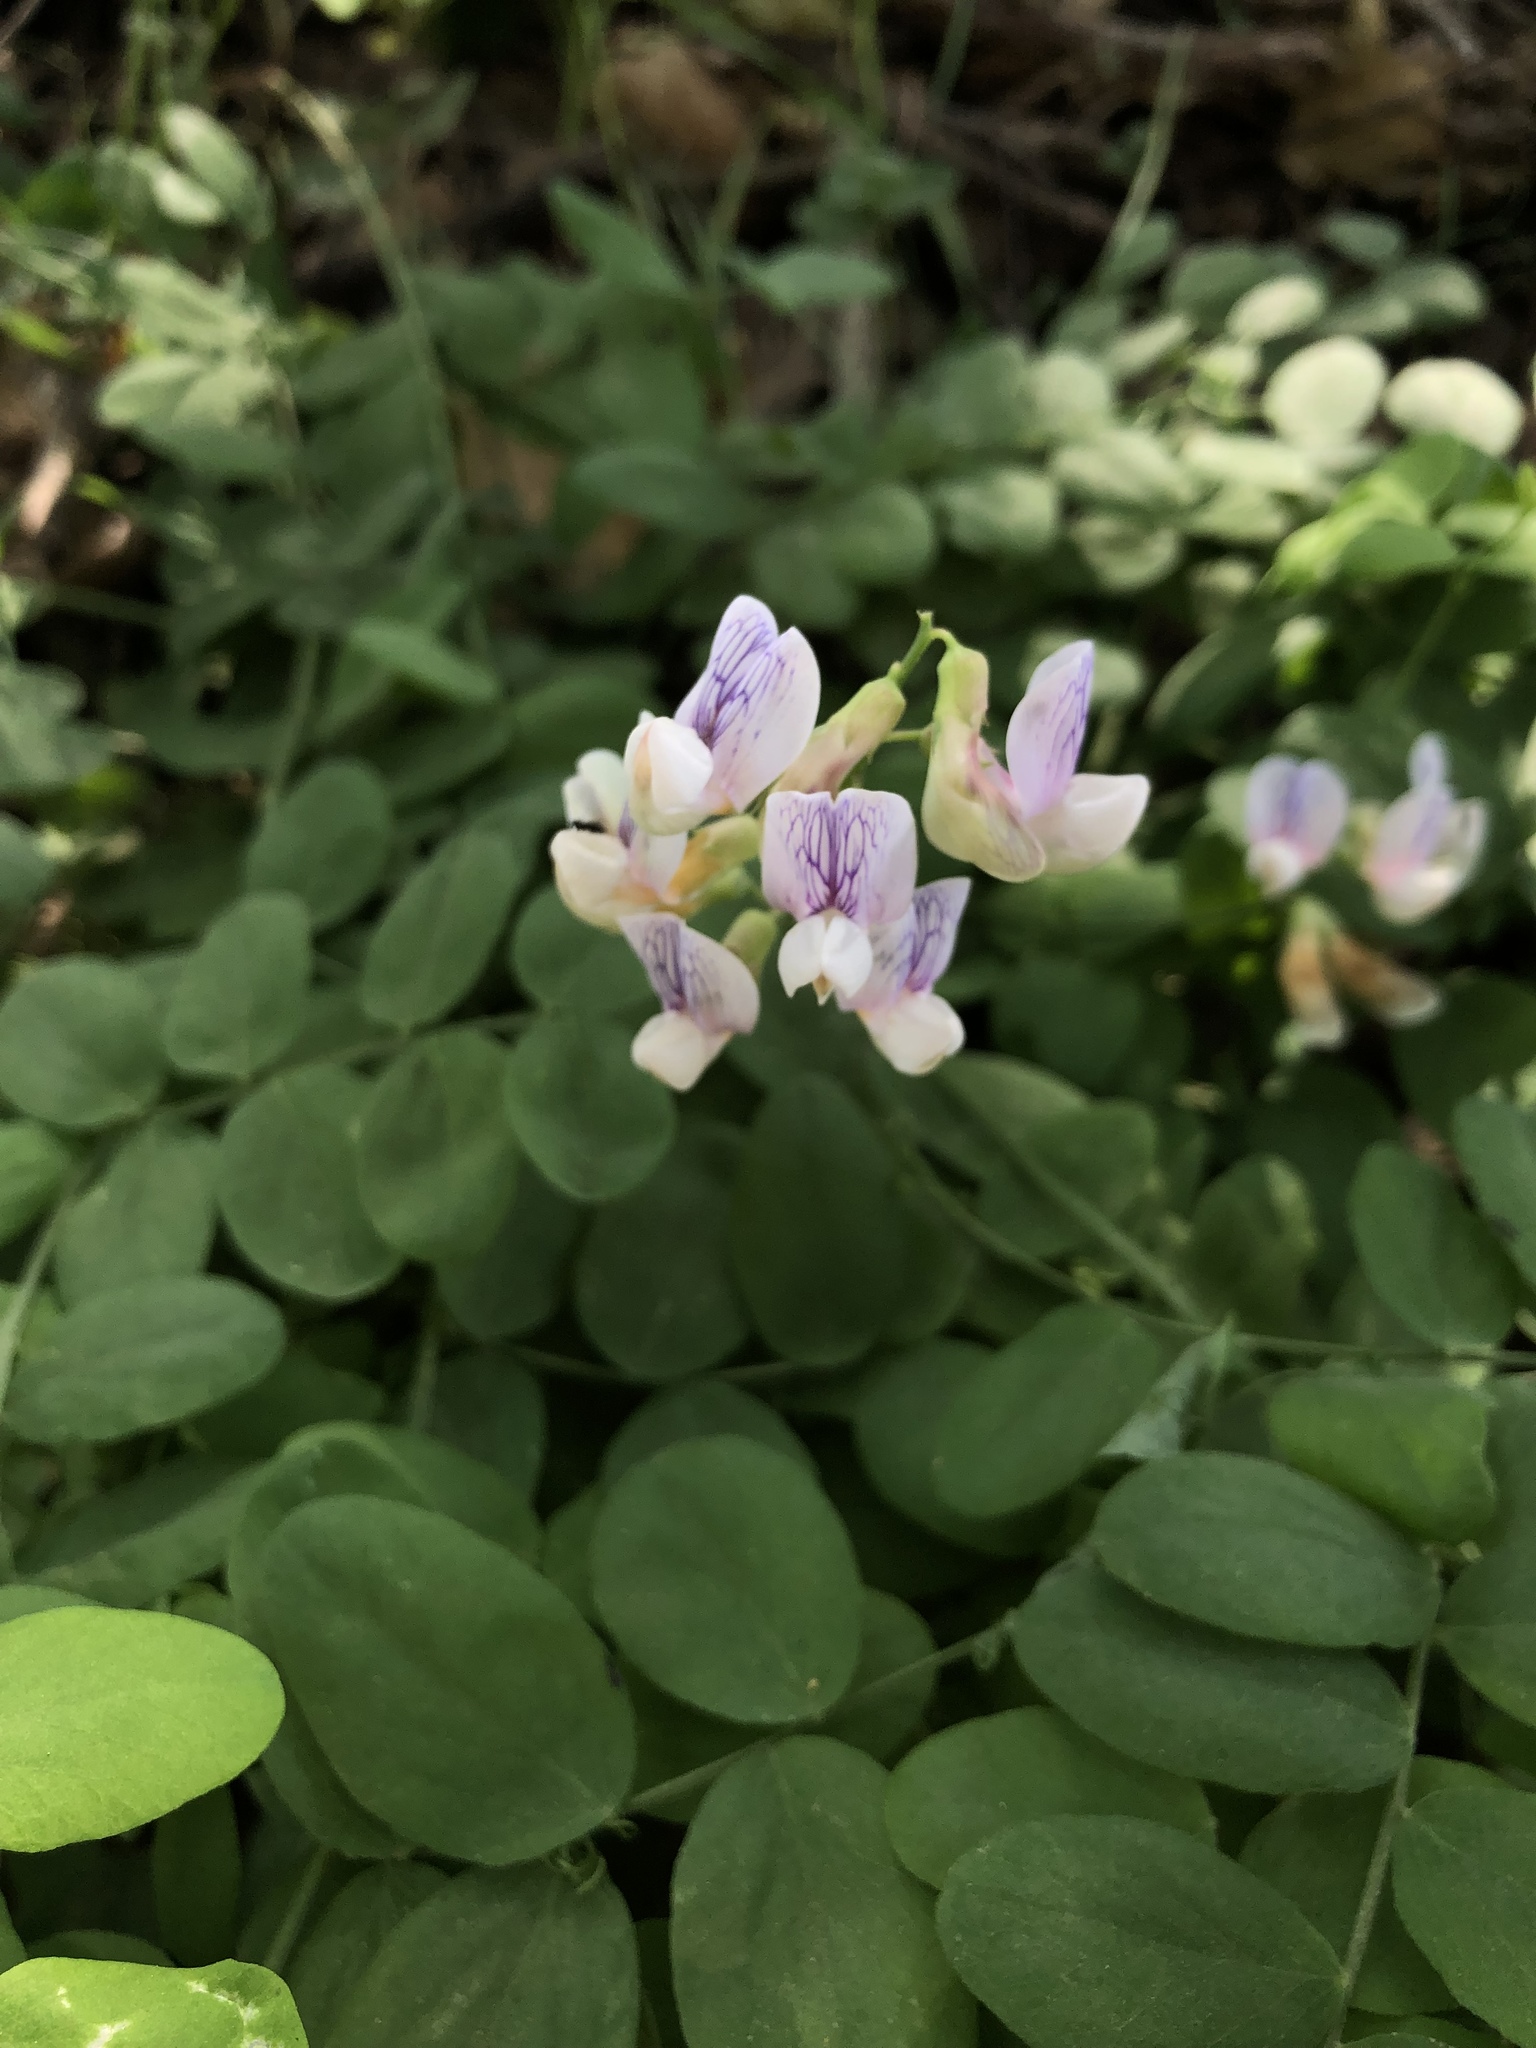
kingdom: Plantae
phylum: Tracheophyta
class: Magnoliopsida
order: Fabales
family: Fabaceae
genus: Lathyrus
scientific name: Lathyrus vestitus
